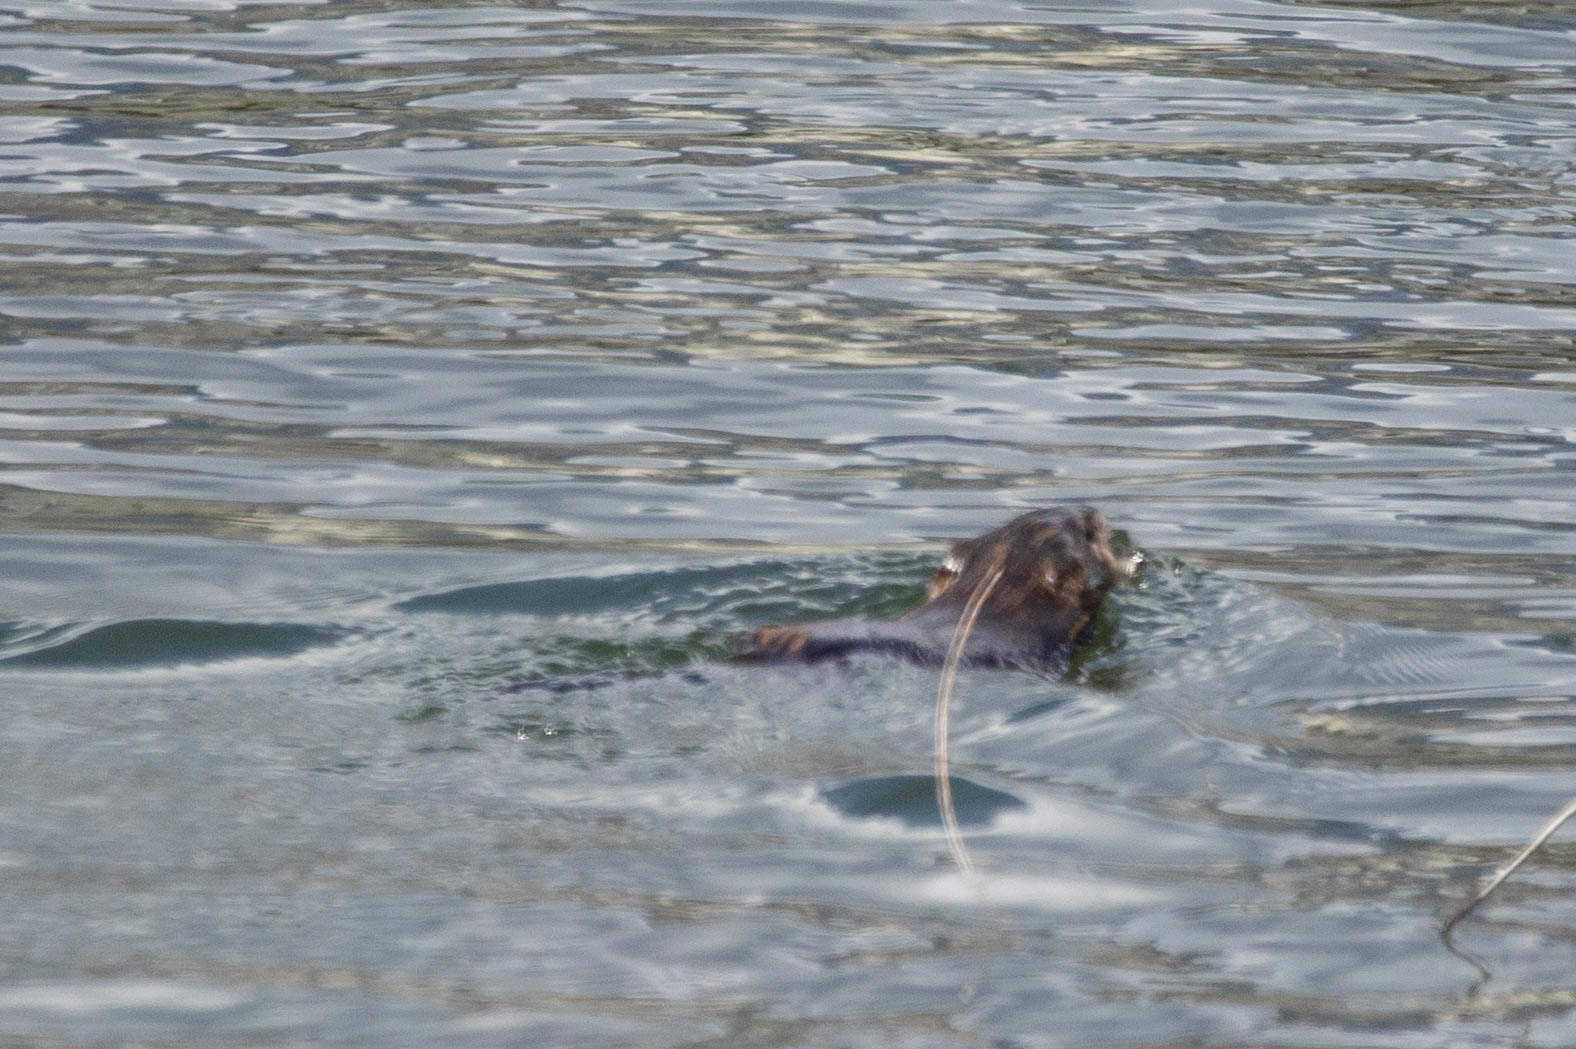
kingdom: Animalia
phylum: Chordata
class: Mammalia
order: Rodentia
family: Cricetidae
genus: Ondatra
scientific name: Ondatra zibethicus
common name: Muskrat
